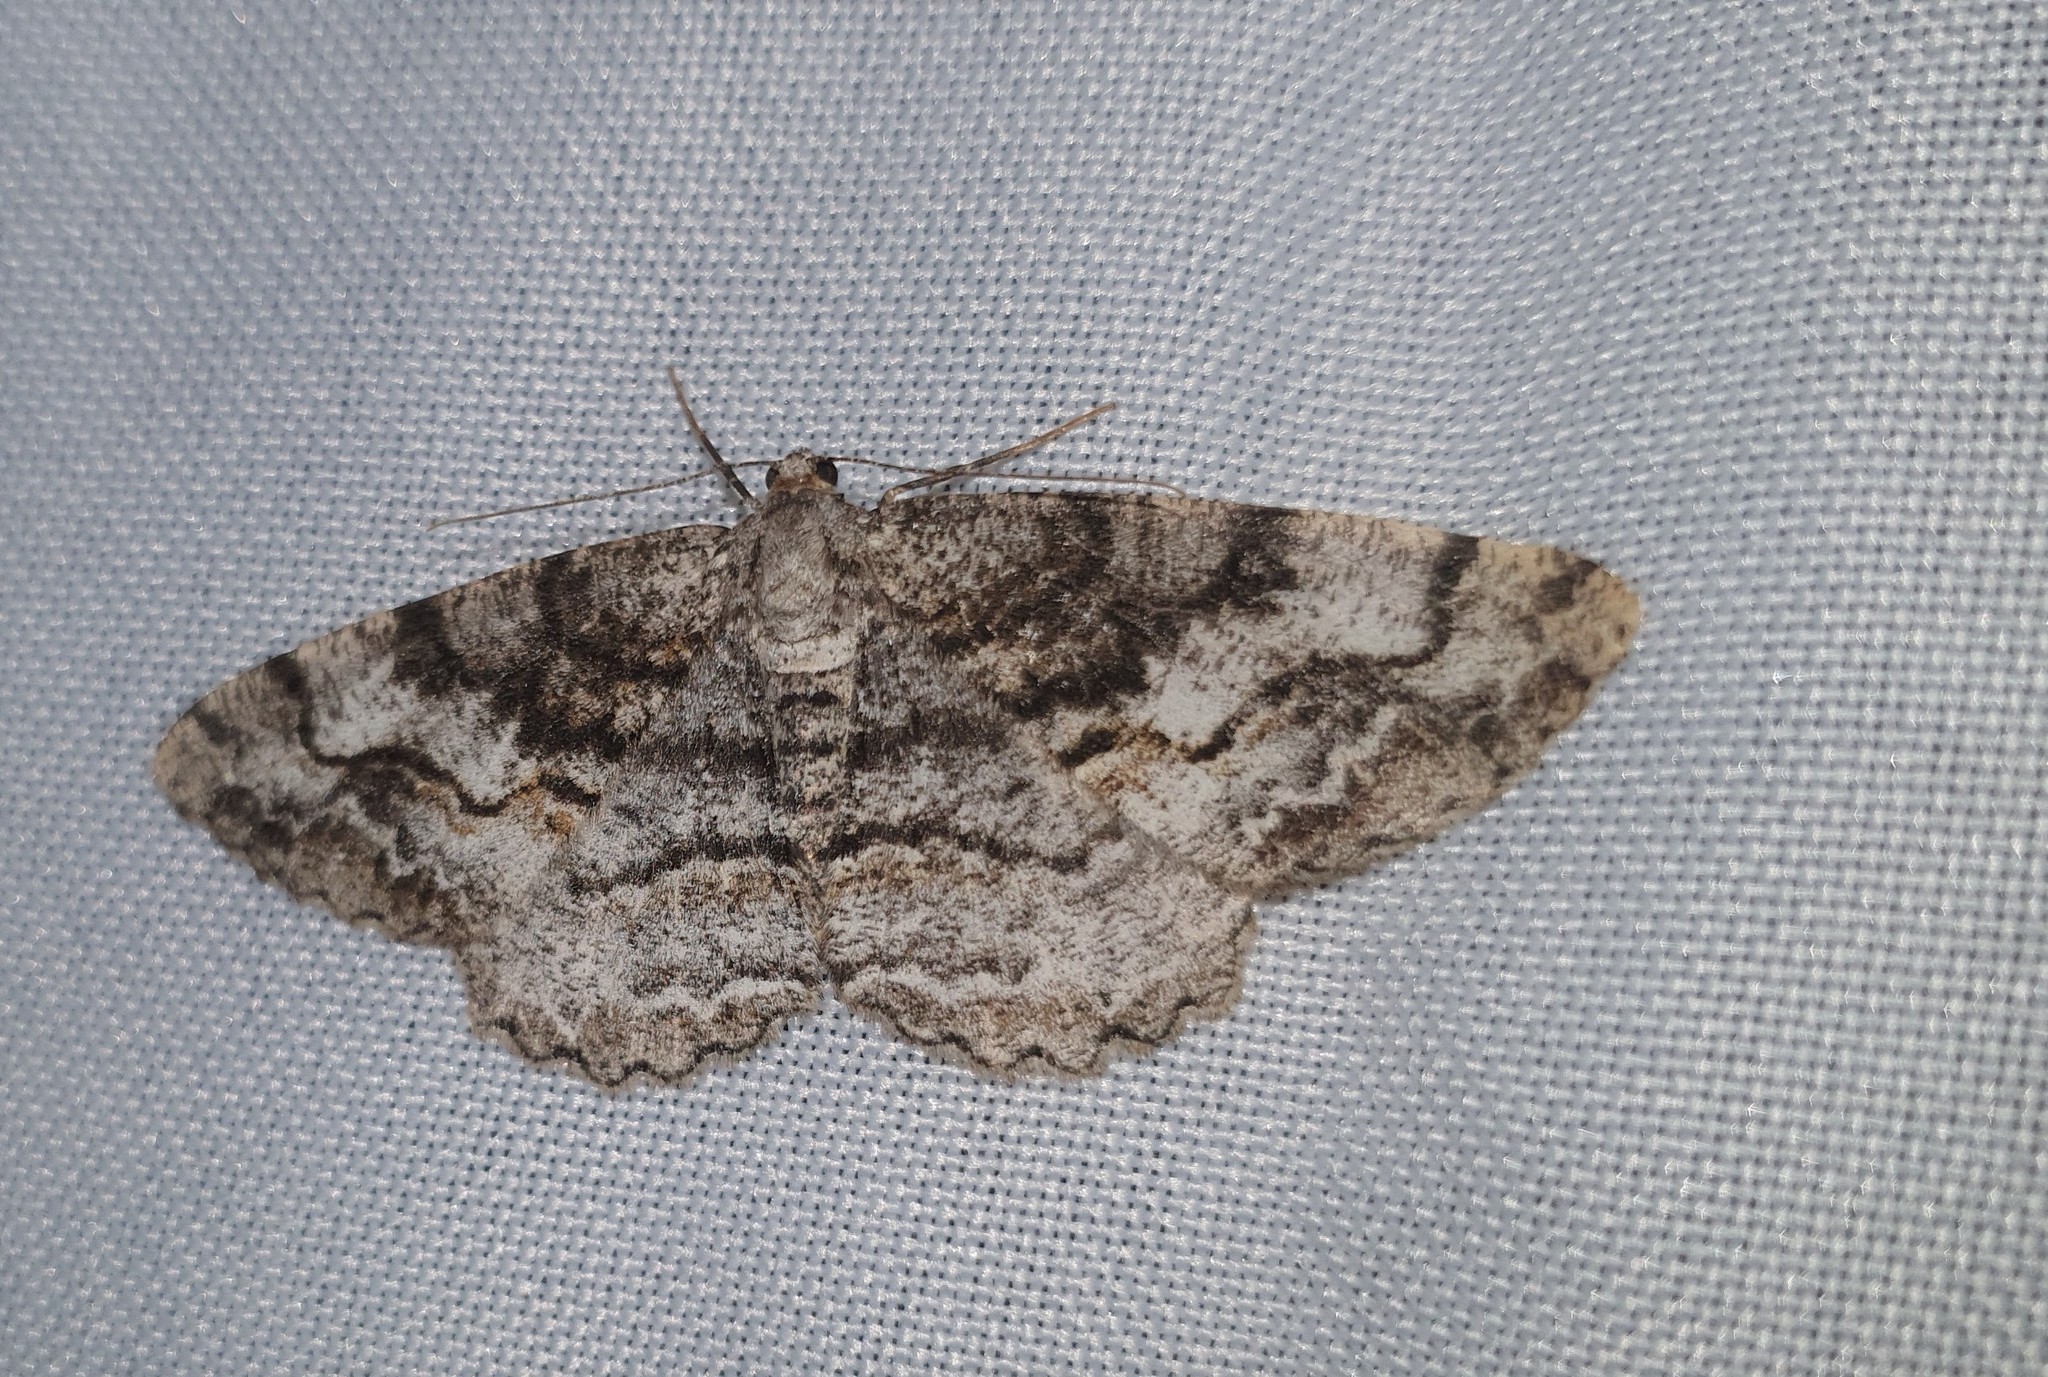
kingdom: Animalia
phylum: Arthropoda
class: Insecta
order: Lepidoptera
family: Geometridae
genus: Alcis
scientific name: Alcis repandata
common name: Mottled beauty
